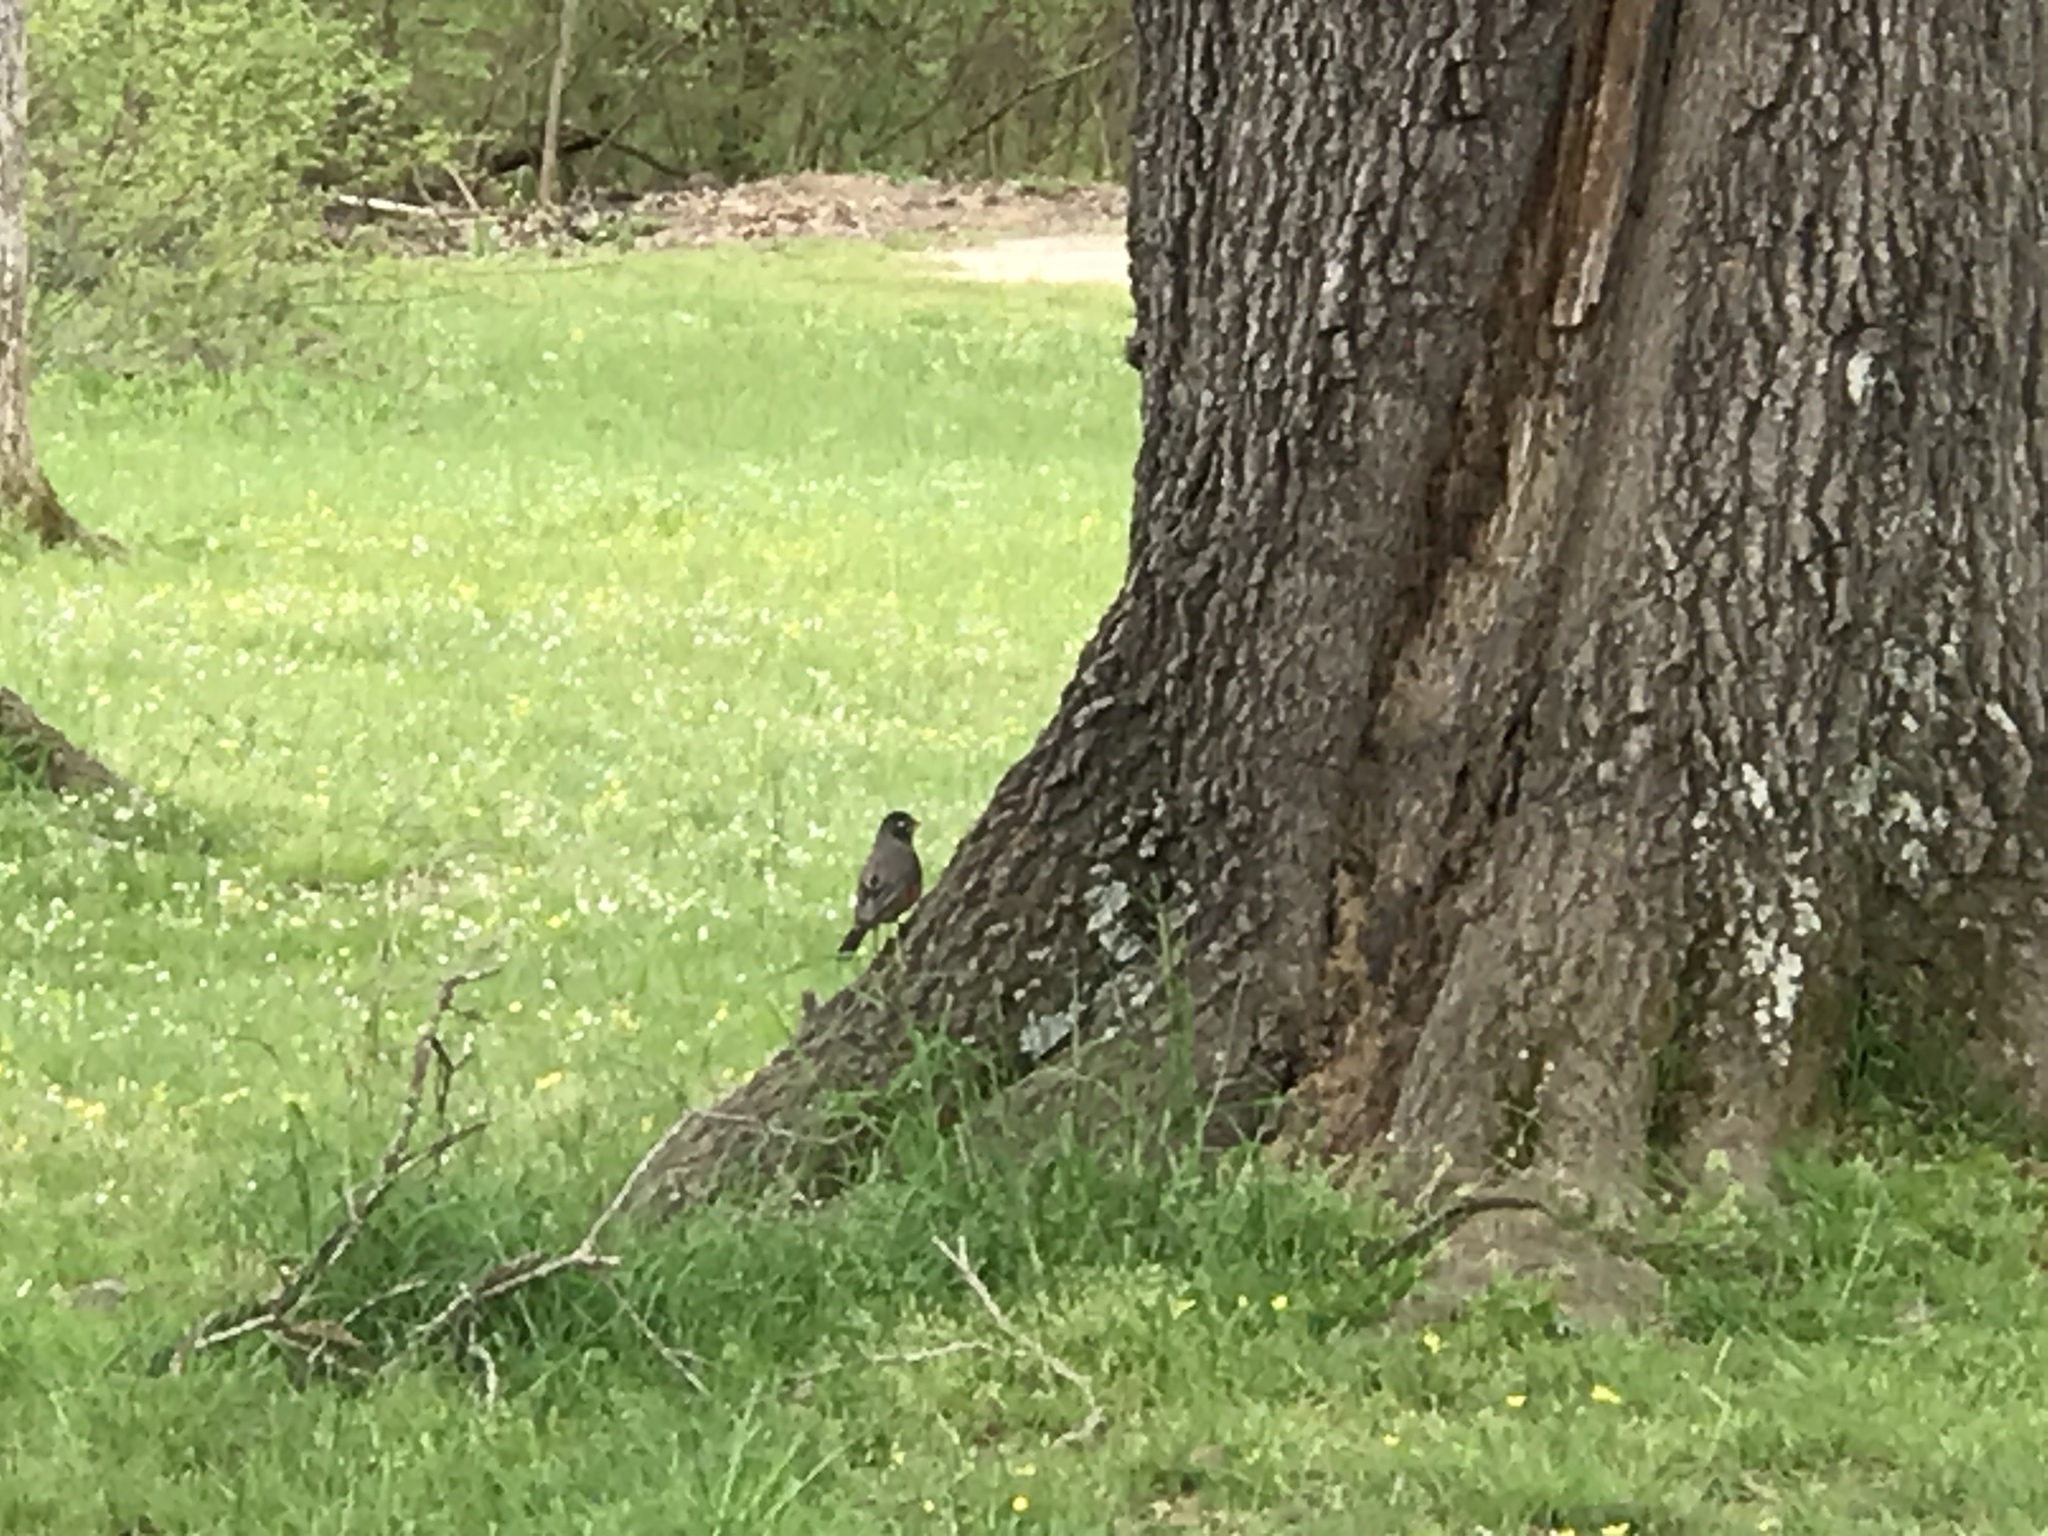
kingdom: Animalia
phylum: Chordata
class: Aves
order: Passeriformes
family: Turdidae
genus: Turdus
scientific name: Turdus migratorius
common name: American robin
